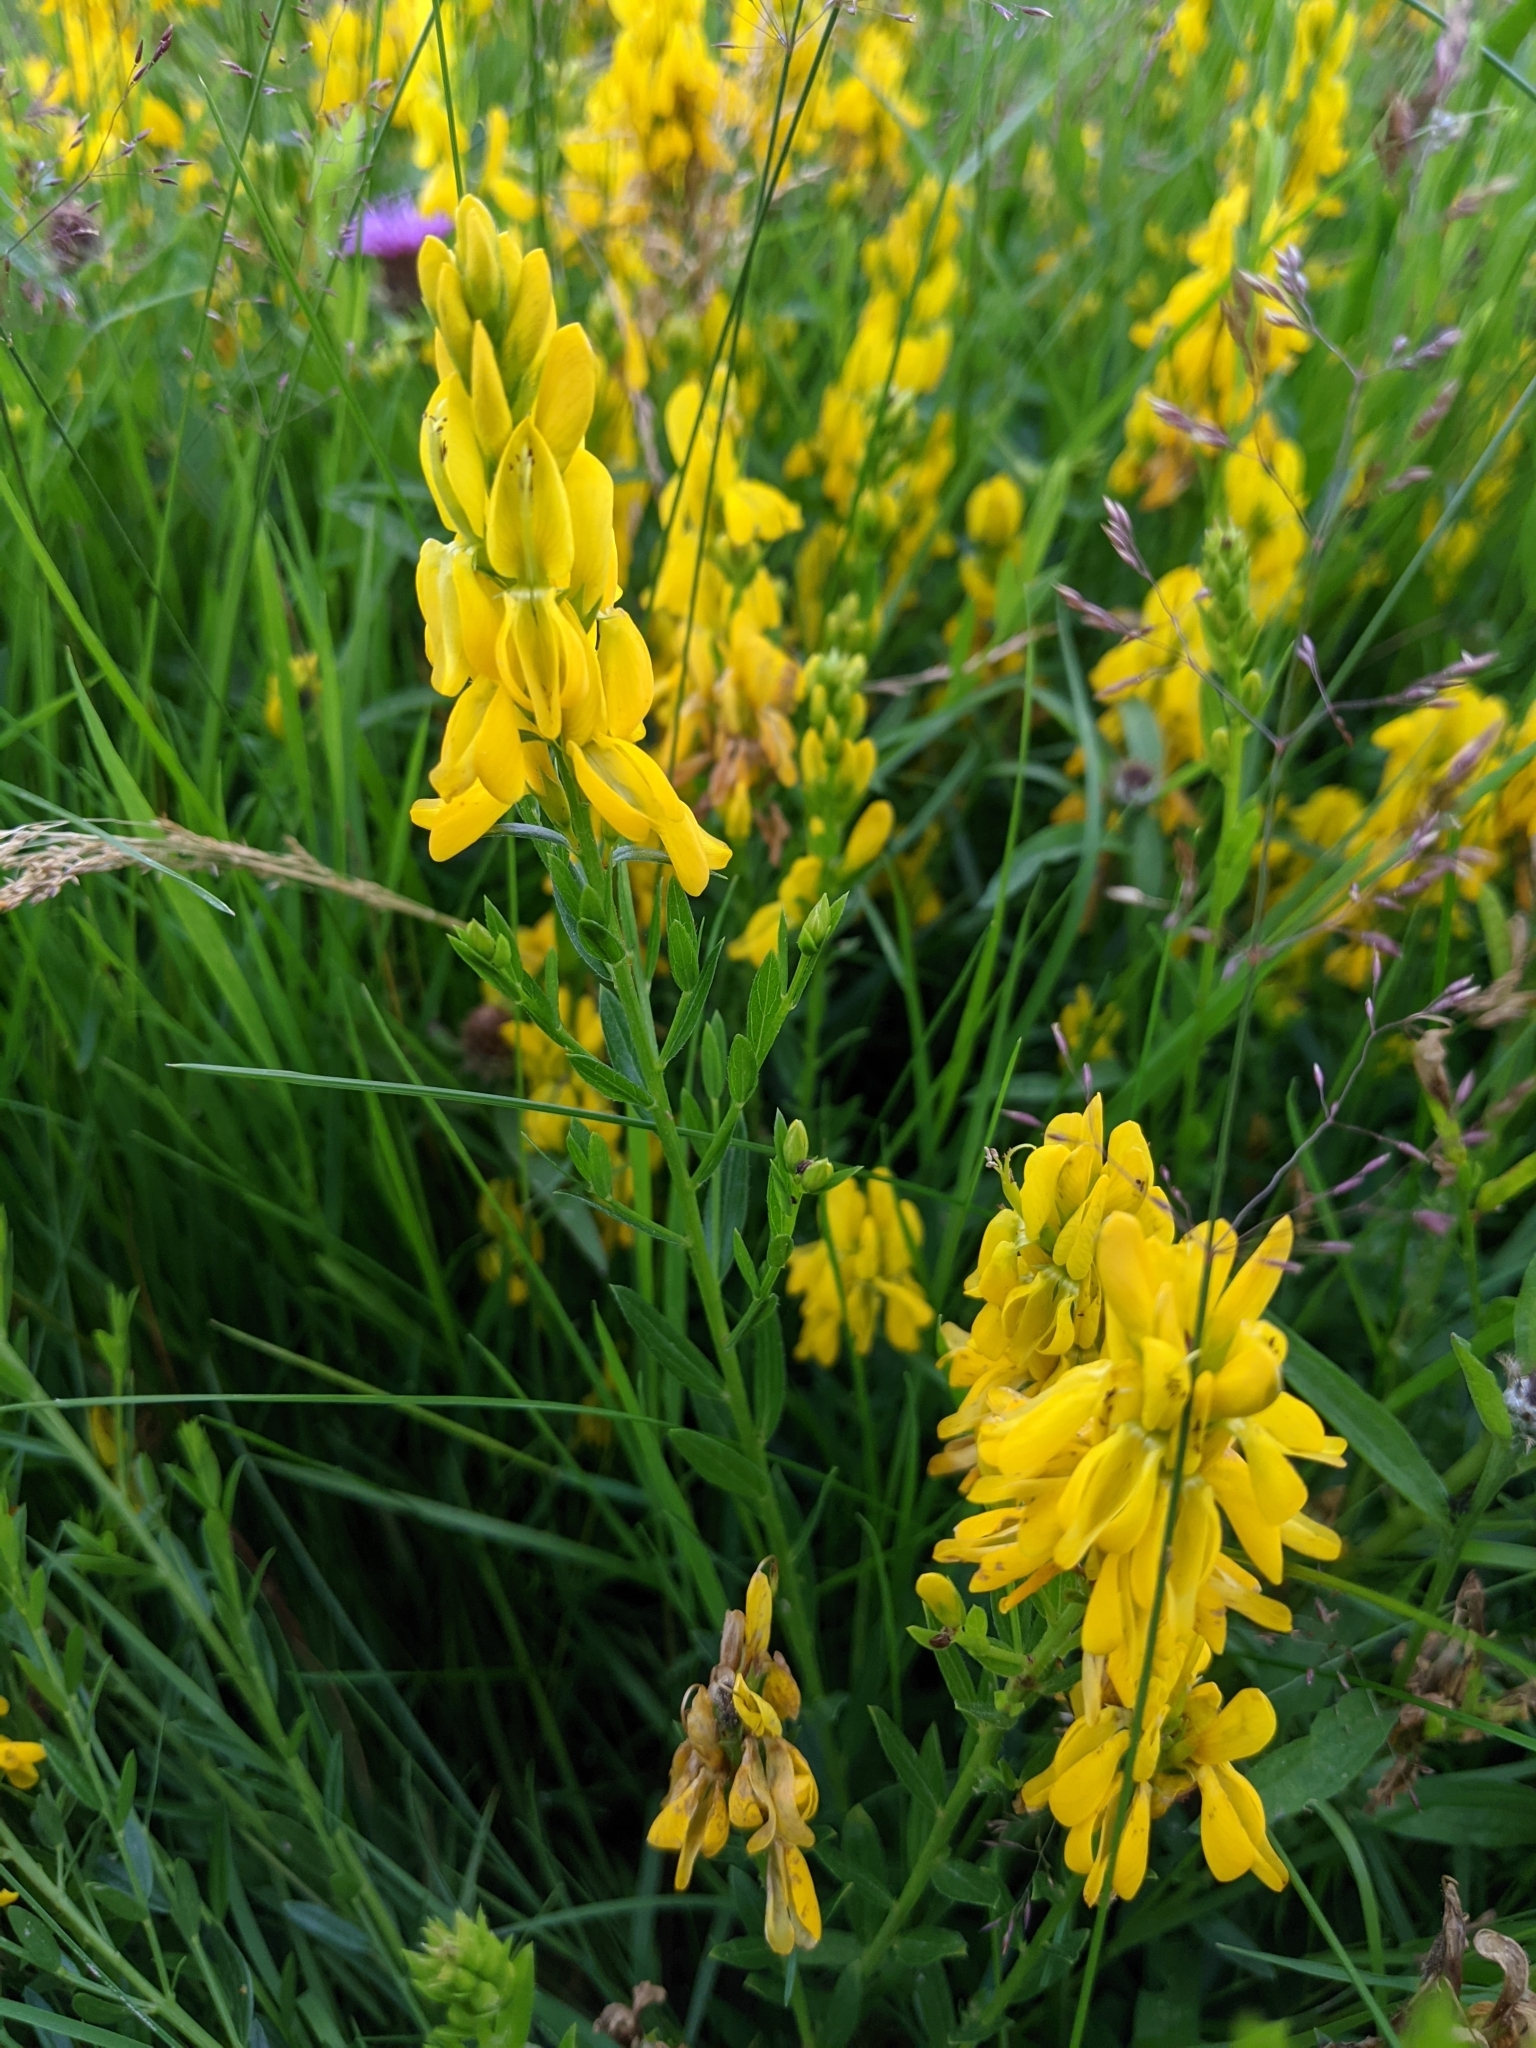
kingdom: Plantae
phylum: Tracheophyta
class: Magnoliopsida
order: Fabales
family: Fabaceae
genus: Genista
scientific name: Genista tinctoria
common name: Dyer's greenweed
